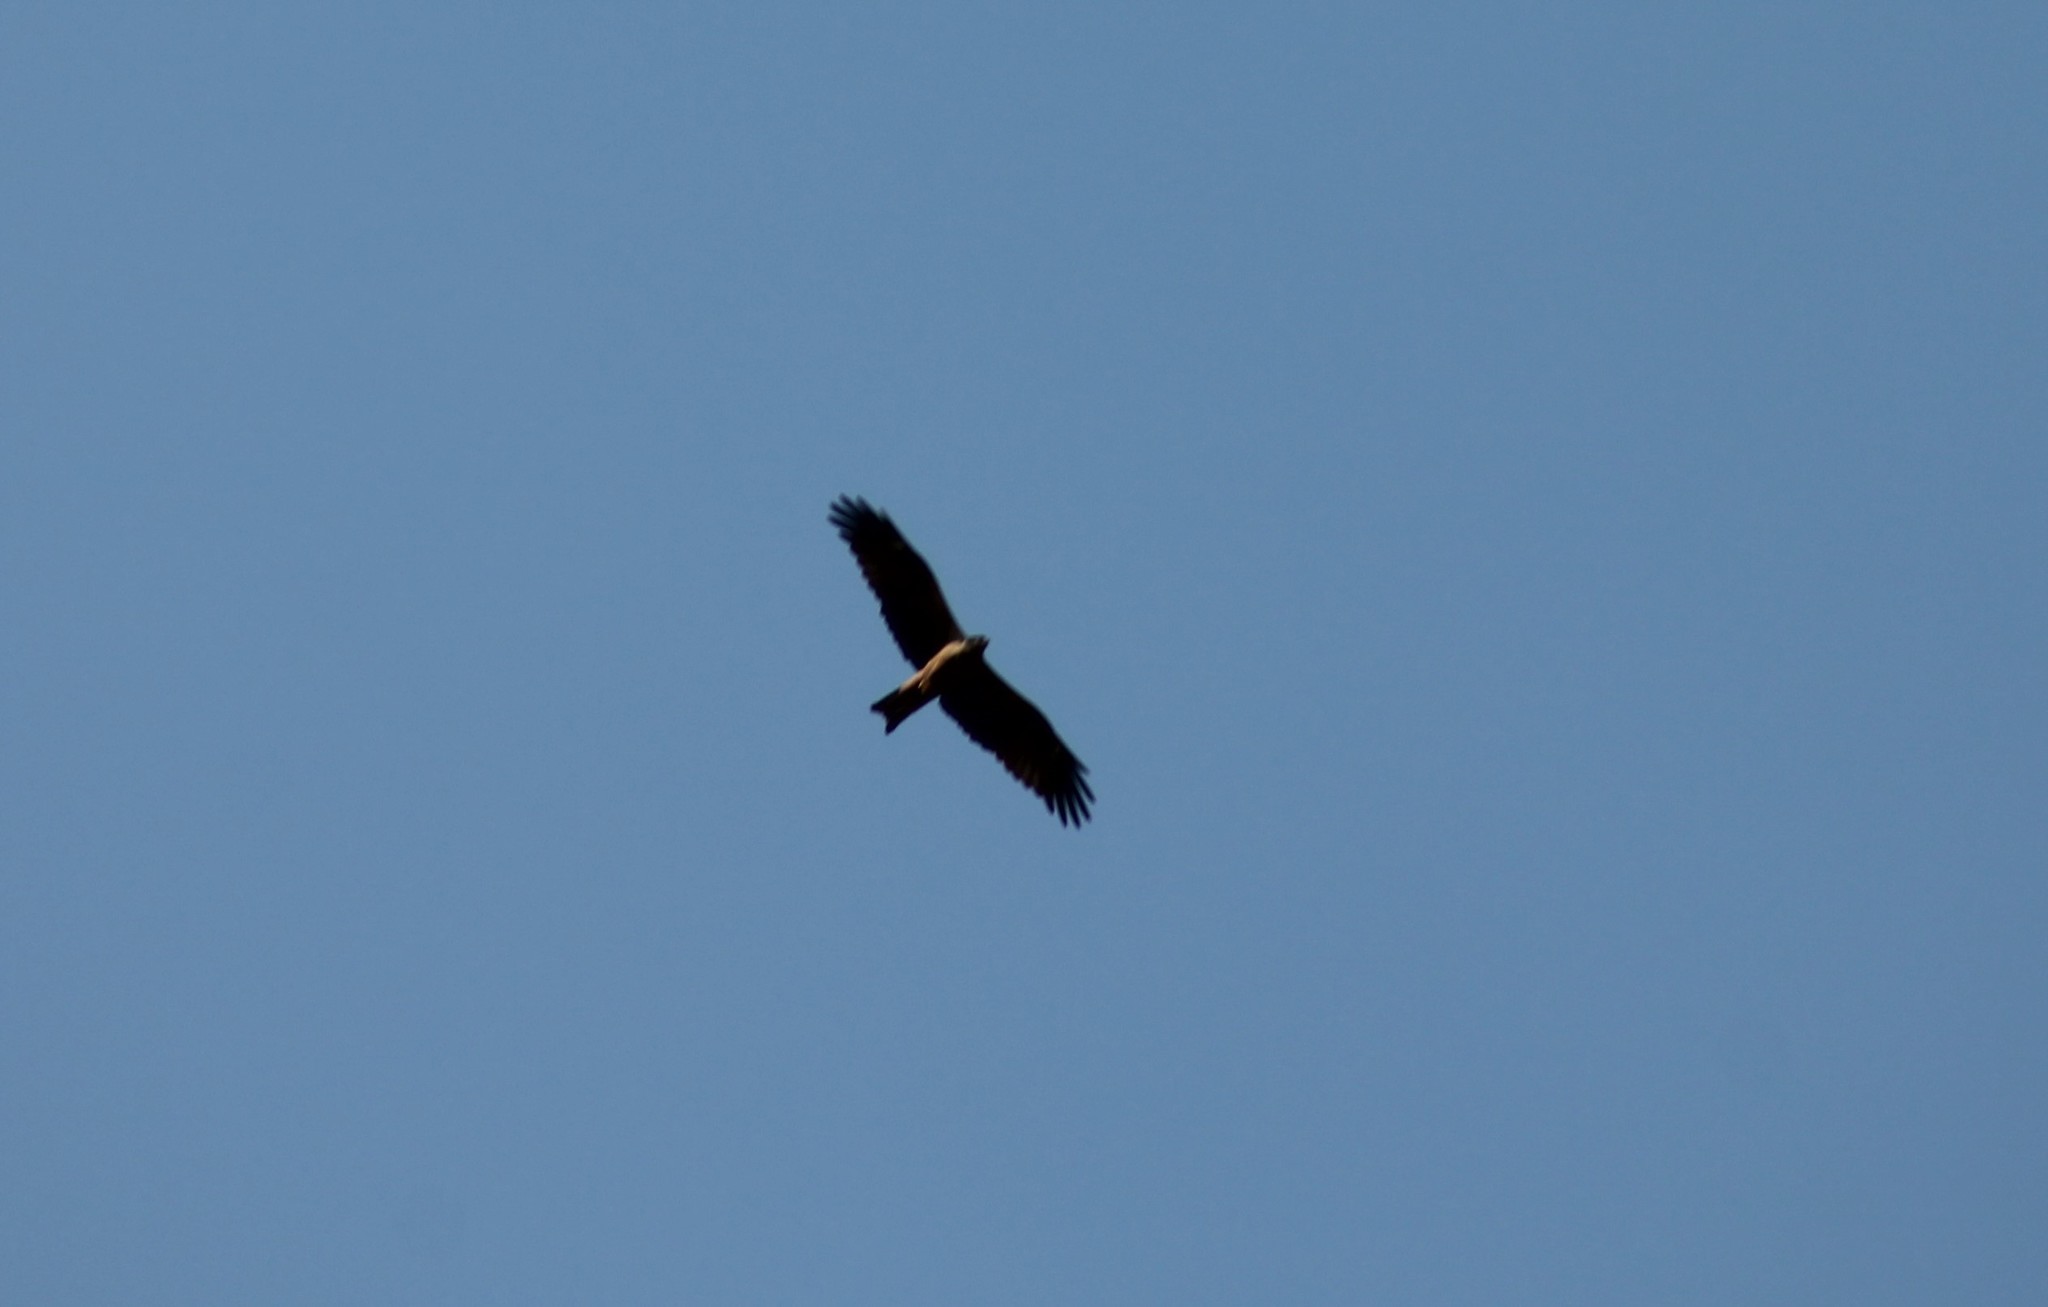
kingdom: Animalia
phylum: Chordata
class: Aves
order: Accipitriformes
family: Accipitridae
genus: Milvus
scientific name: Milvus migrans
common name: Black kite
